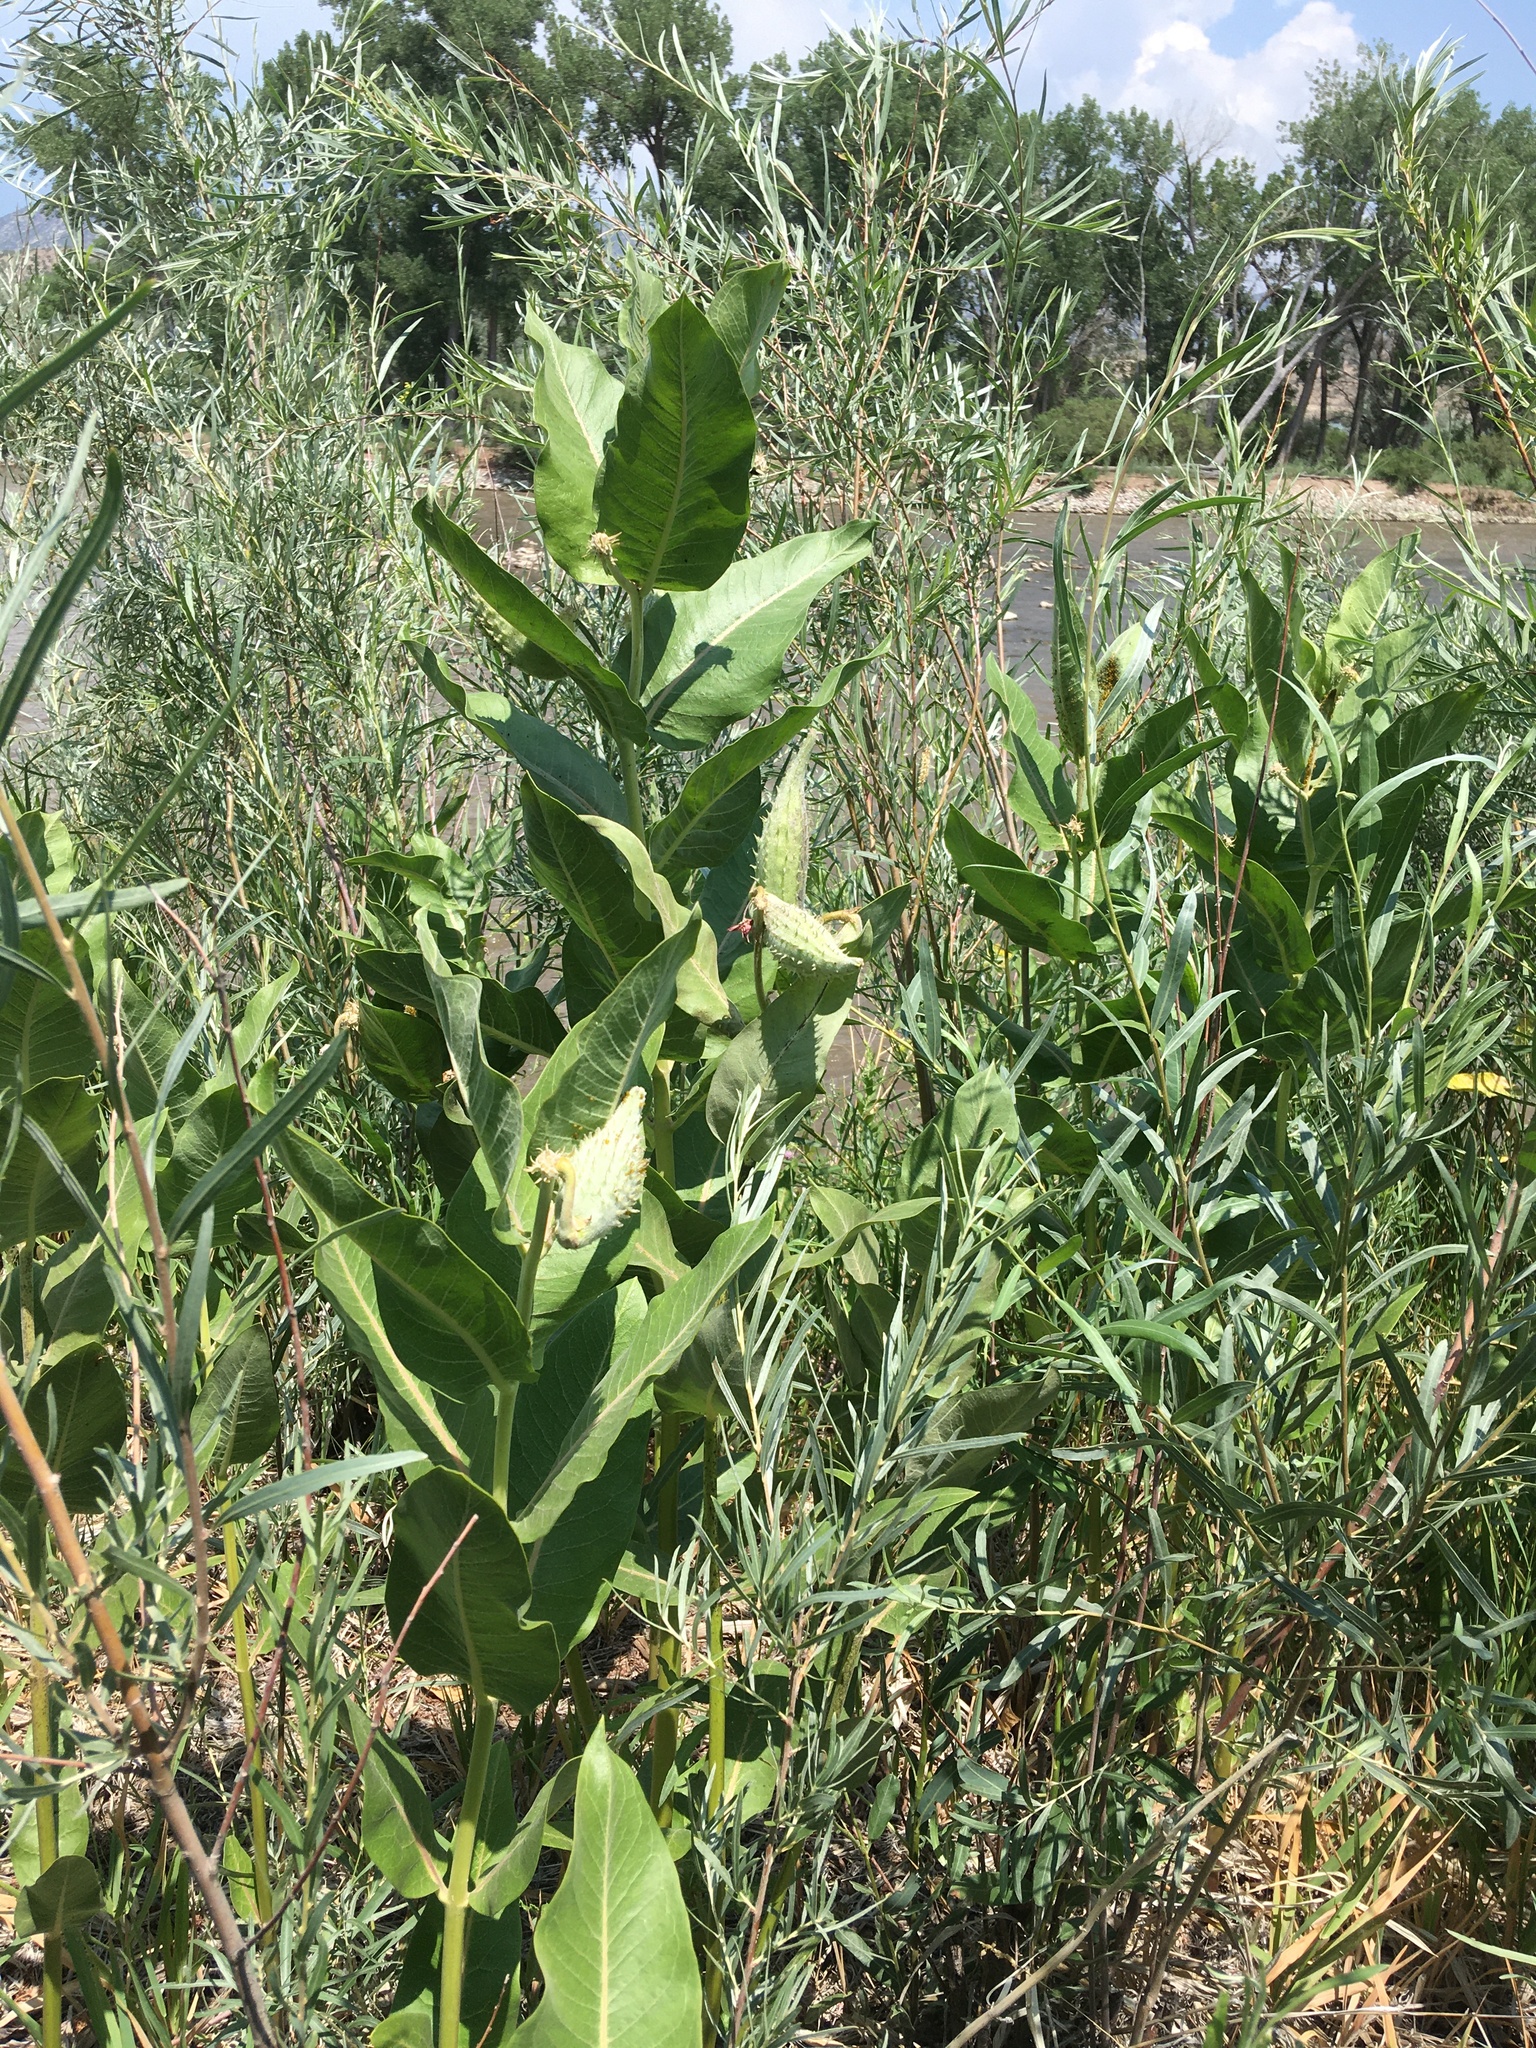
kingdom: Plantae
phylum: Tracheophyta
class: Magnoliopsida
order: Gentianales
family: Apocynaceae
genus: Asclepias
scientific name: Asclepias speciosa
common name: Showy milkweed
